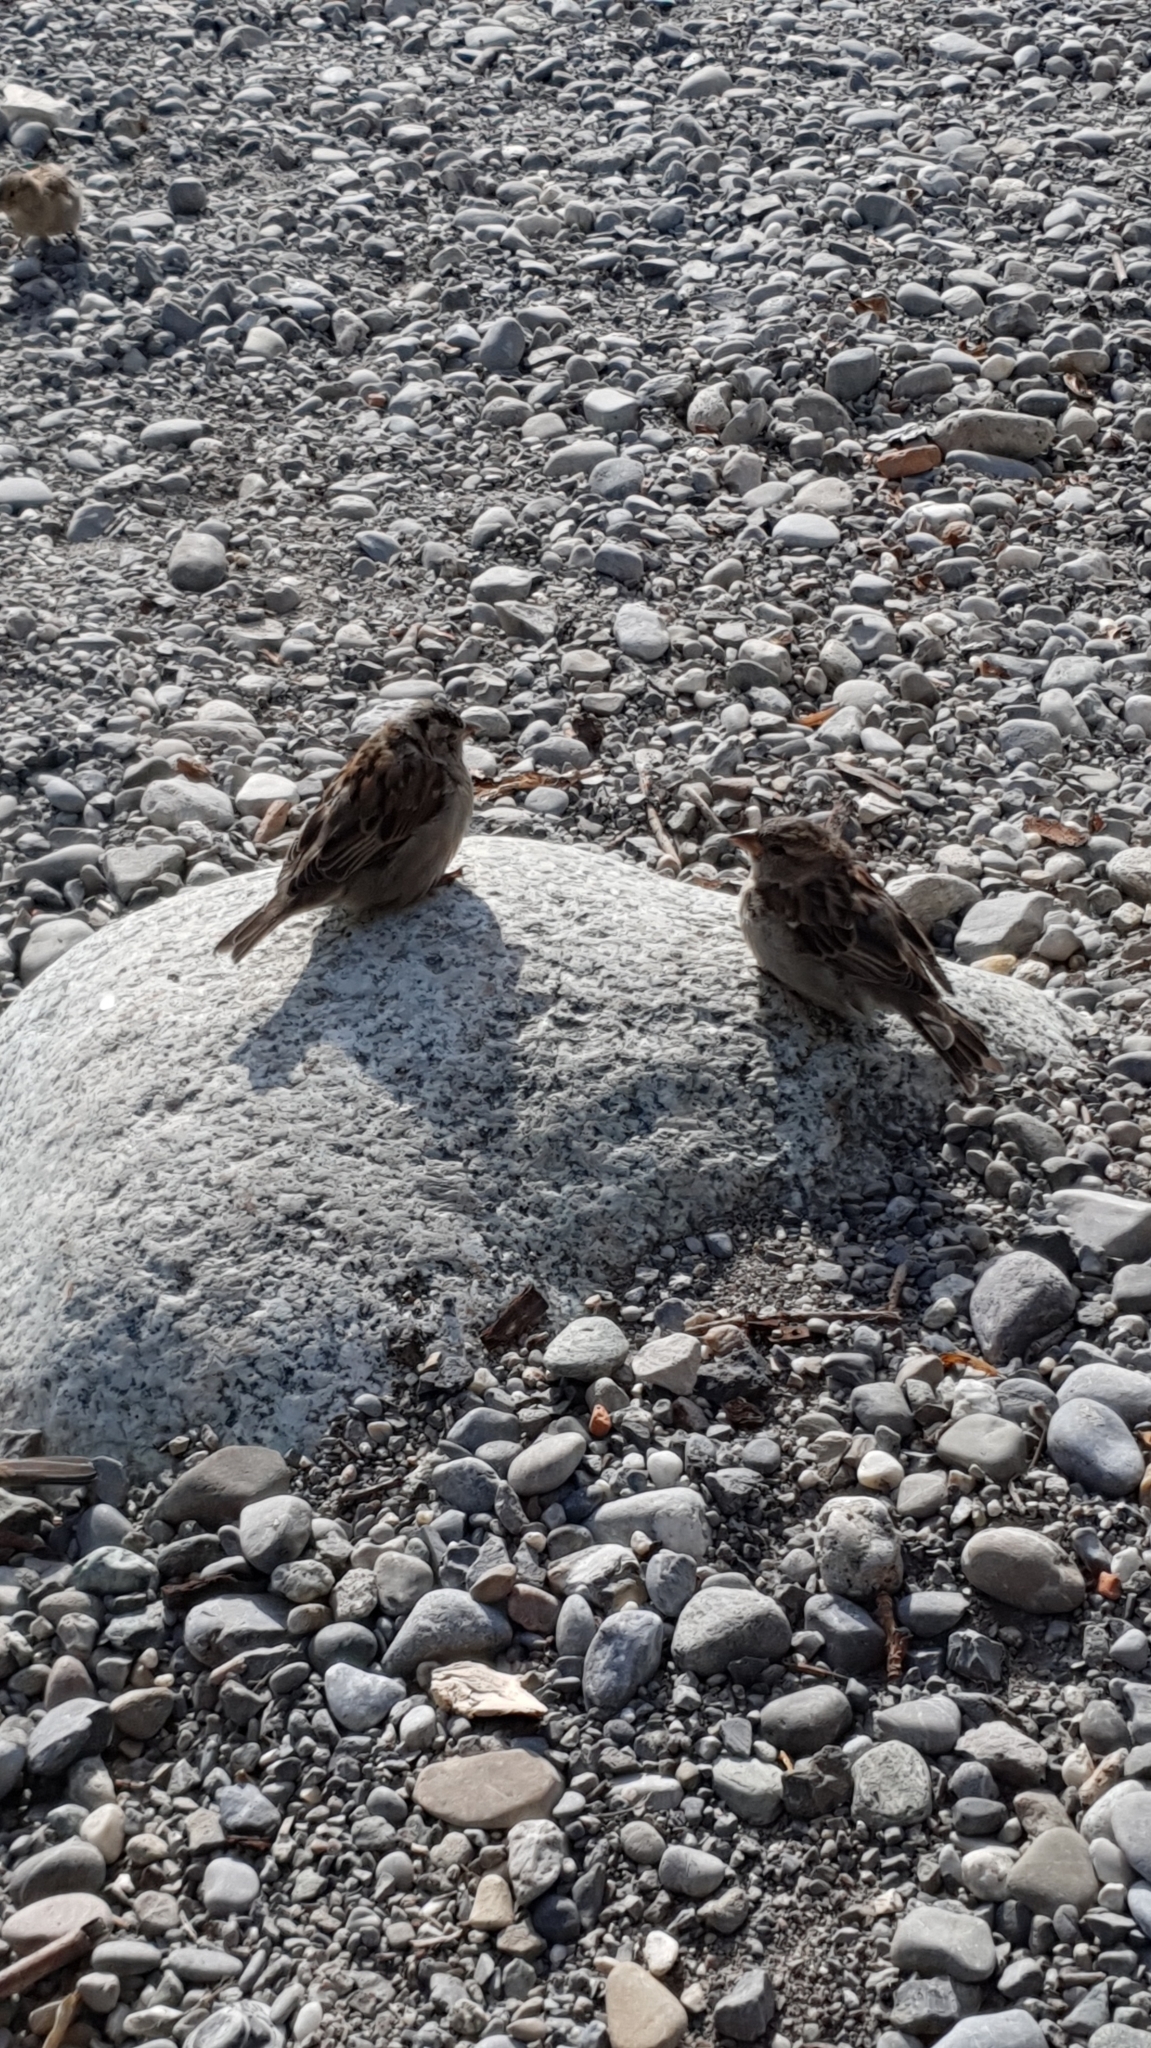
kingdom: Animalia
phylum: Chordata
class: Aves
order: Passeriformes
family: Passeridae
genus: Passer
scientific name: Passer domesticus
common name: House sparrow
